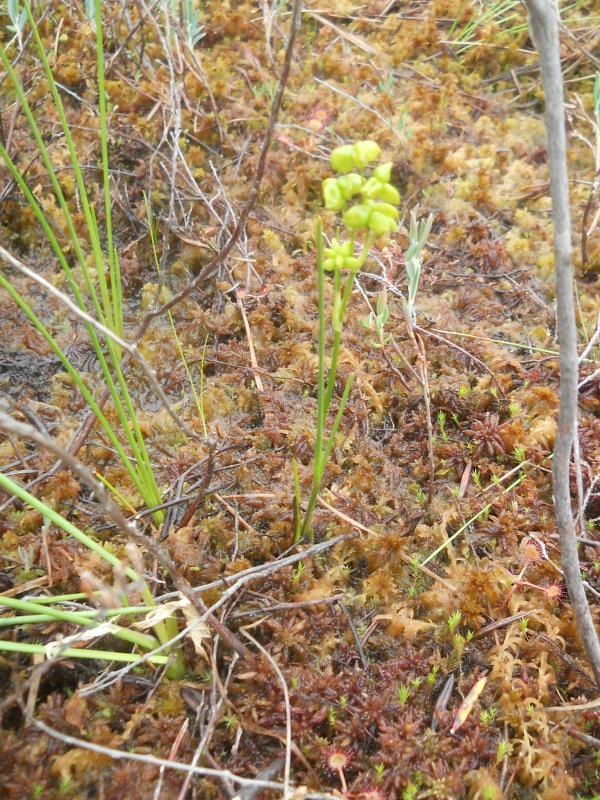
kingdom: Plantae
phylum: Tracheophyta
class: Liliopsida
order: Alismatales
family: Scheuchzeriaceae
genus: Scheuchzeria
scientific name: Scheuchzeria palustris
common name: Rannoch-rush
